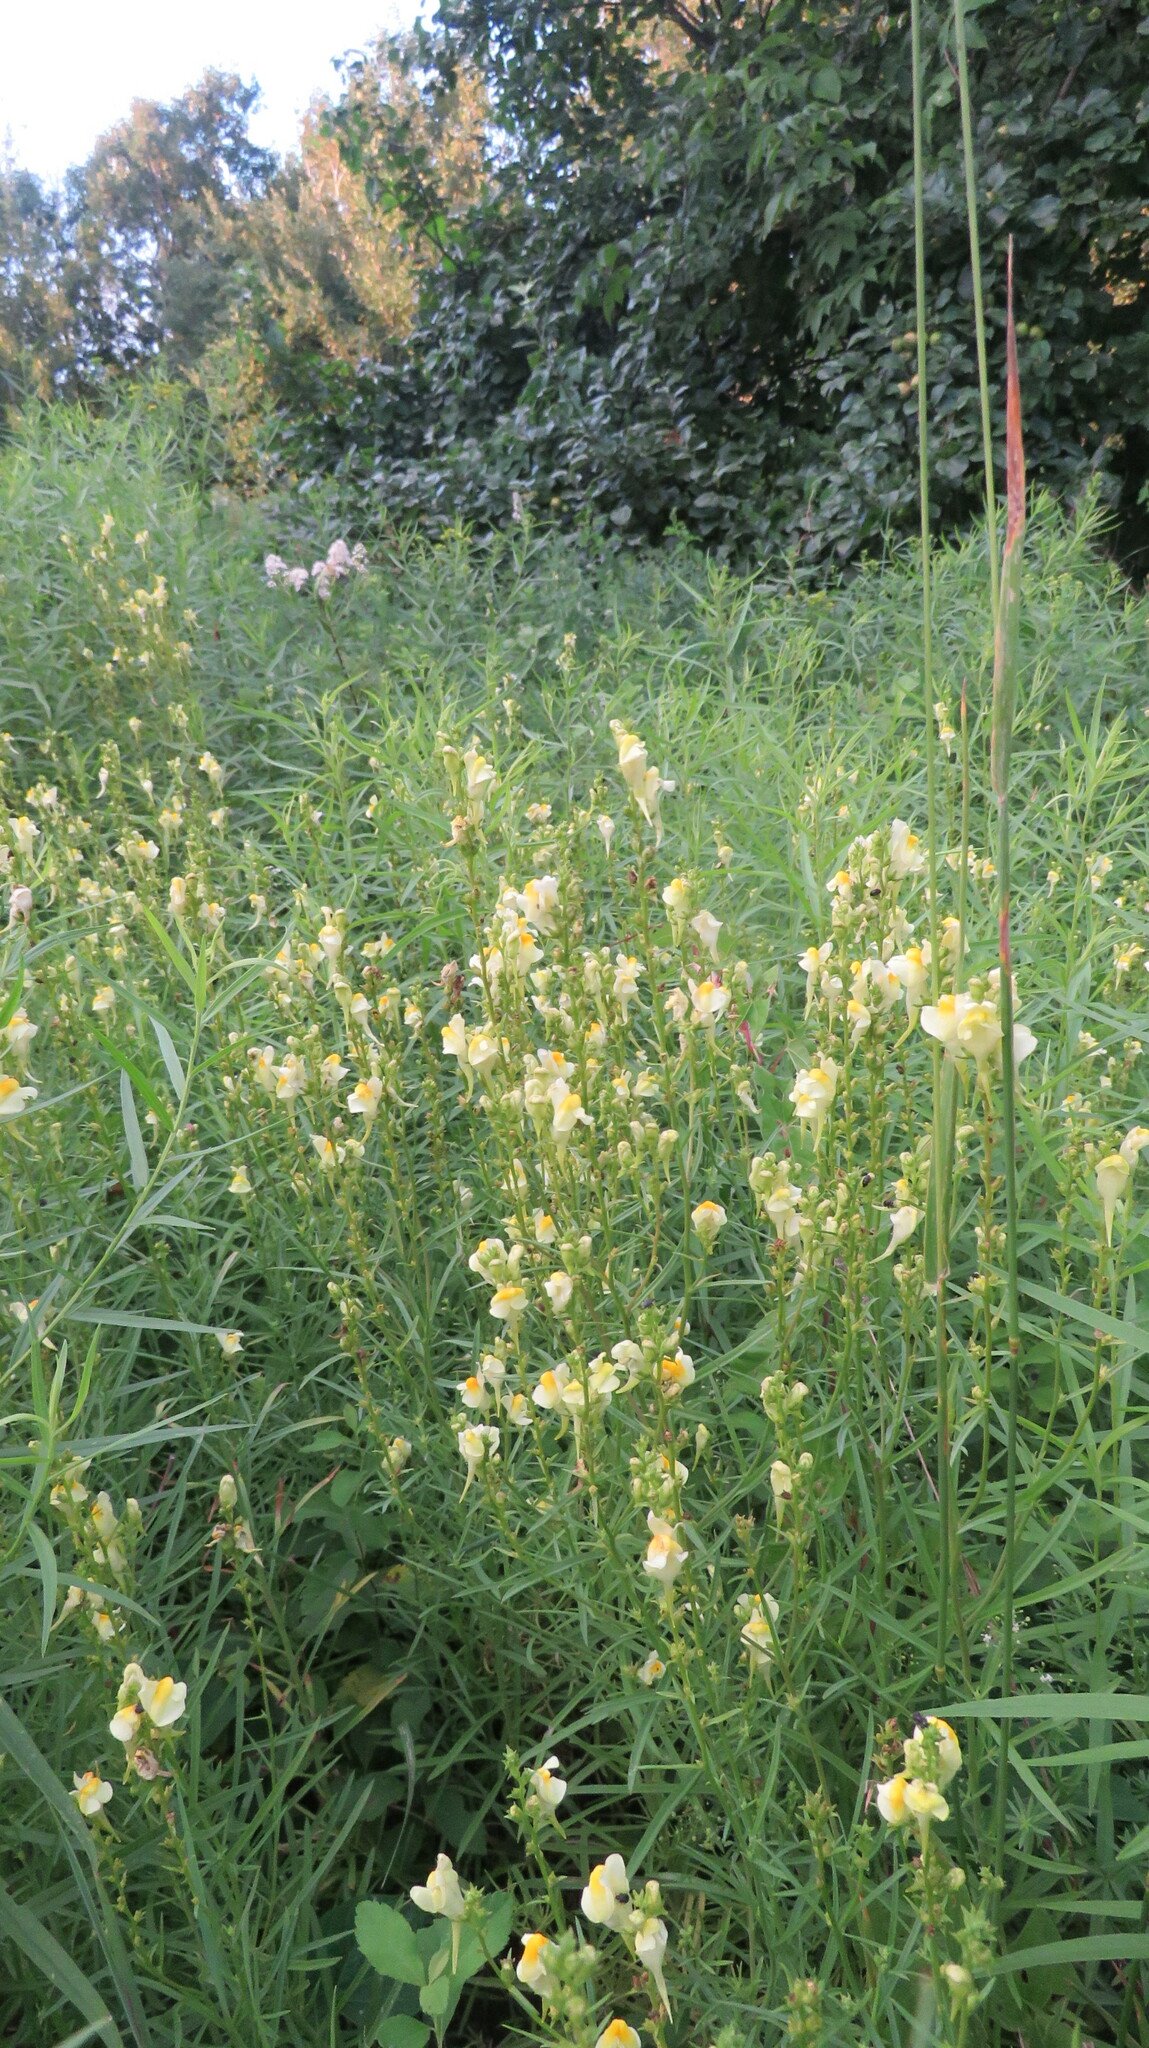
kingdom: Plantae
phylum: Tracheophyta
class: Magnoliopsida
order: Lamiales
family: Plantaginaceae
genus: Linaria
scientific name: Linaria vulgaris
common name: Butter and eggs
